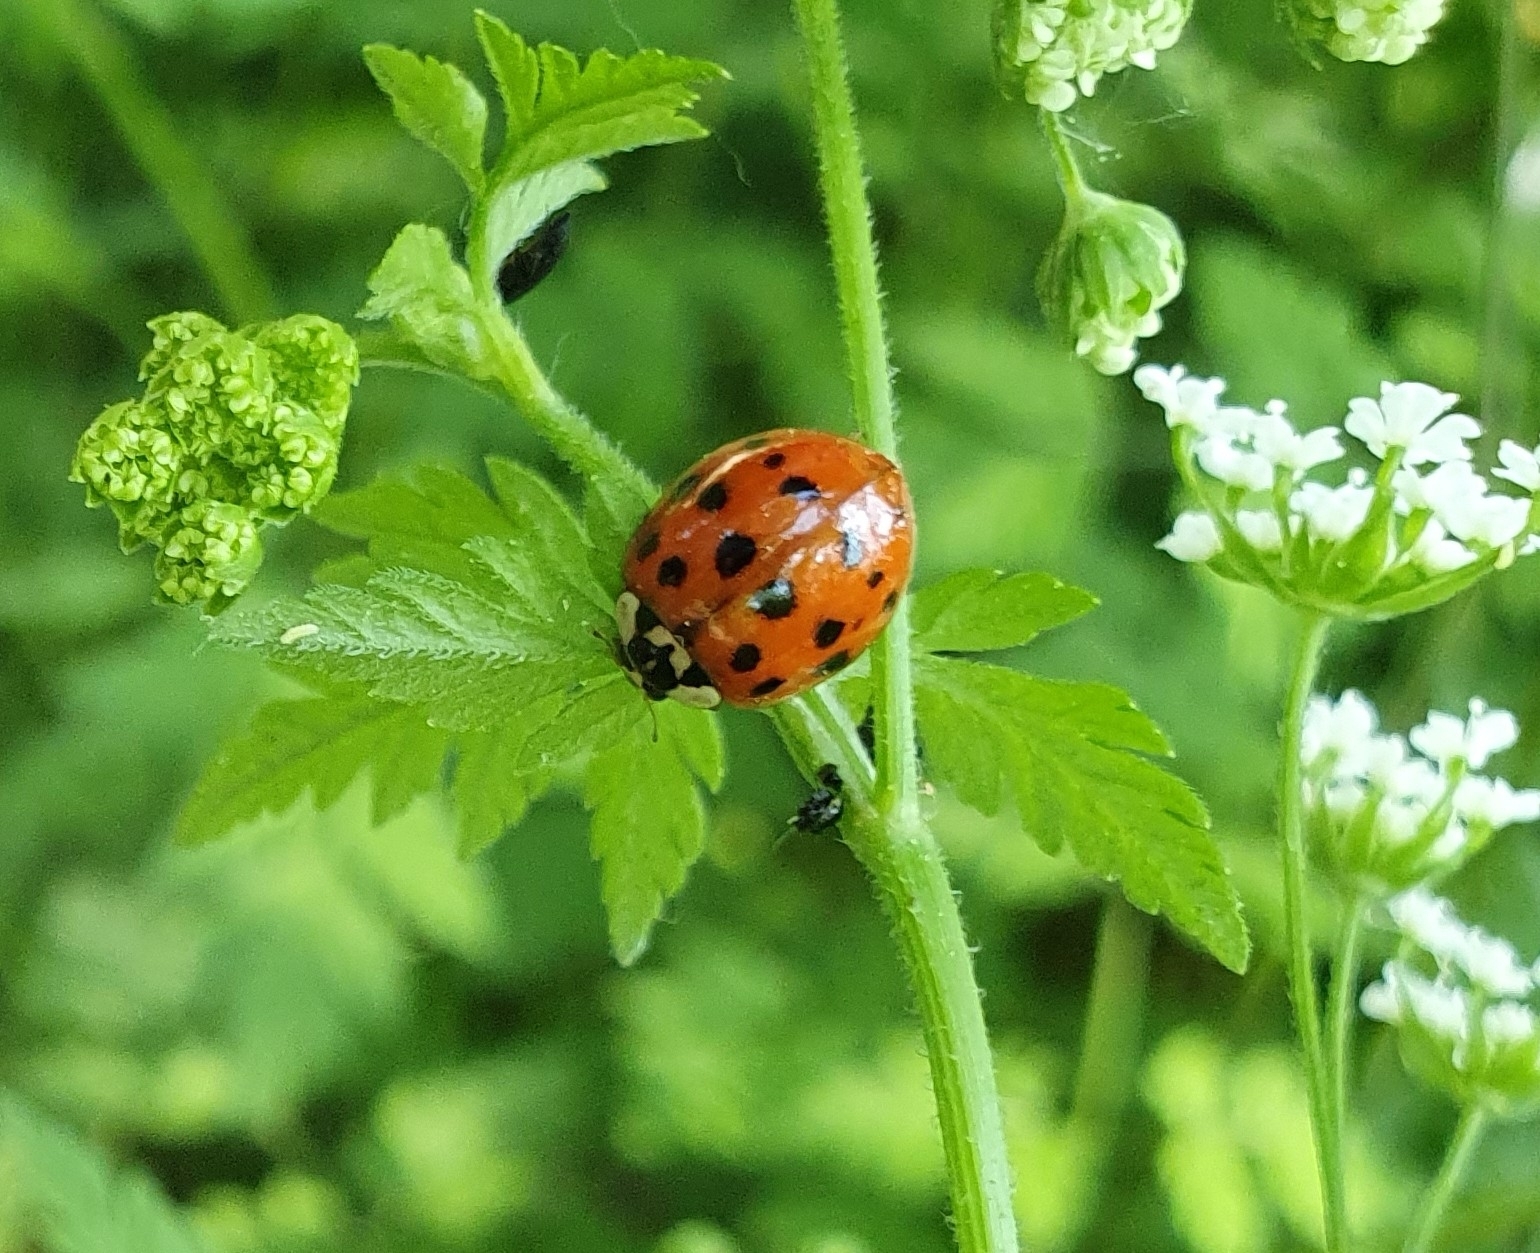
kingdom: Animalia
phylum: Arthropoda
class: Insecta
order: Coleoptera
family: Coccinellidae
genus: Harmonia
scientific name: Harmonia axyridis
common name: Harlequin ladybird
